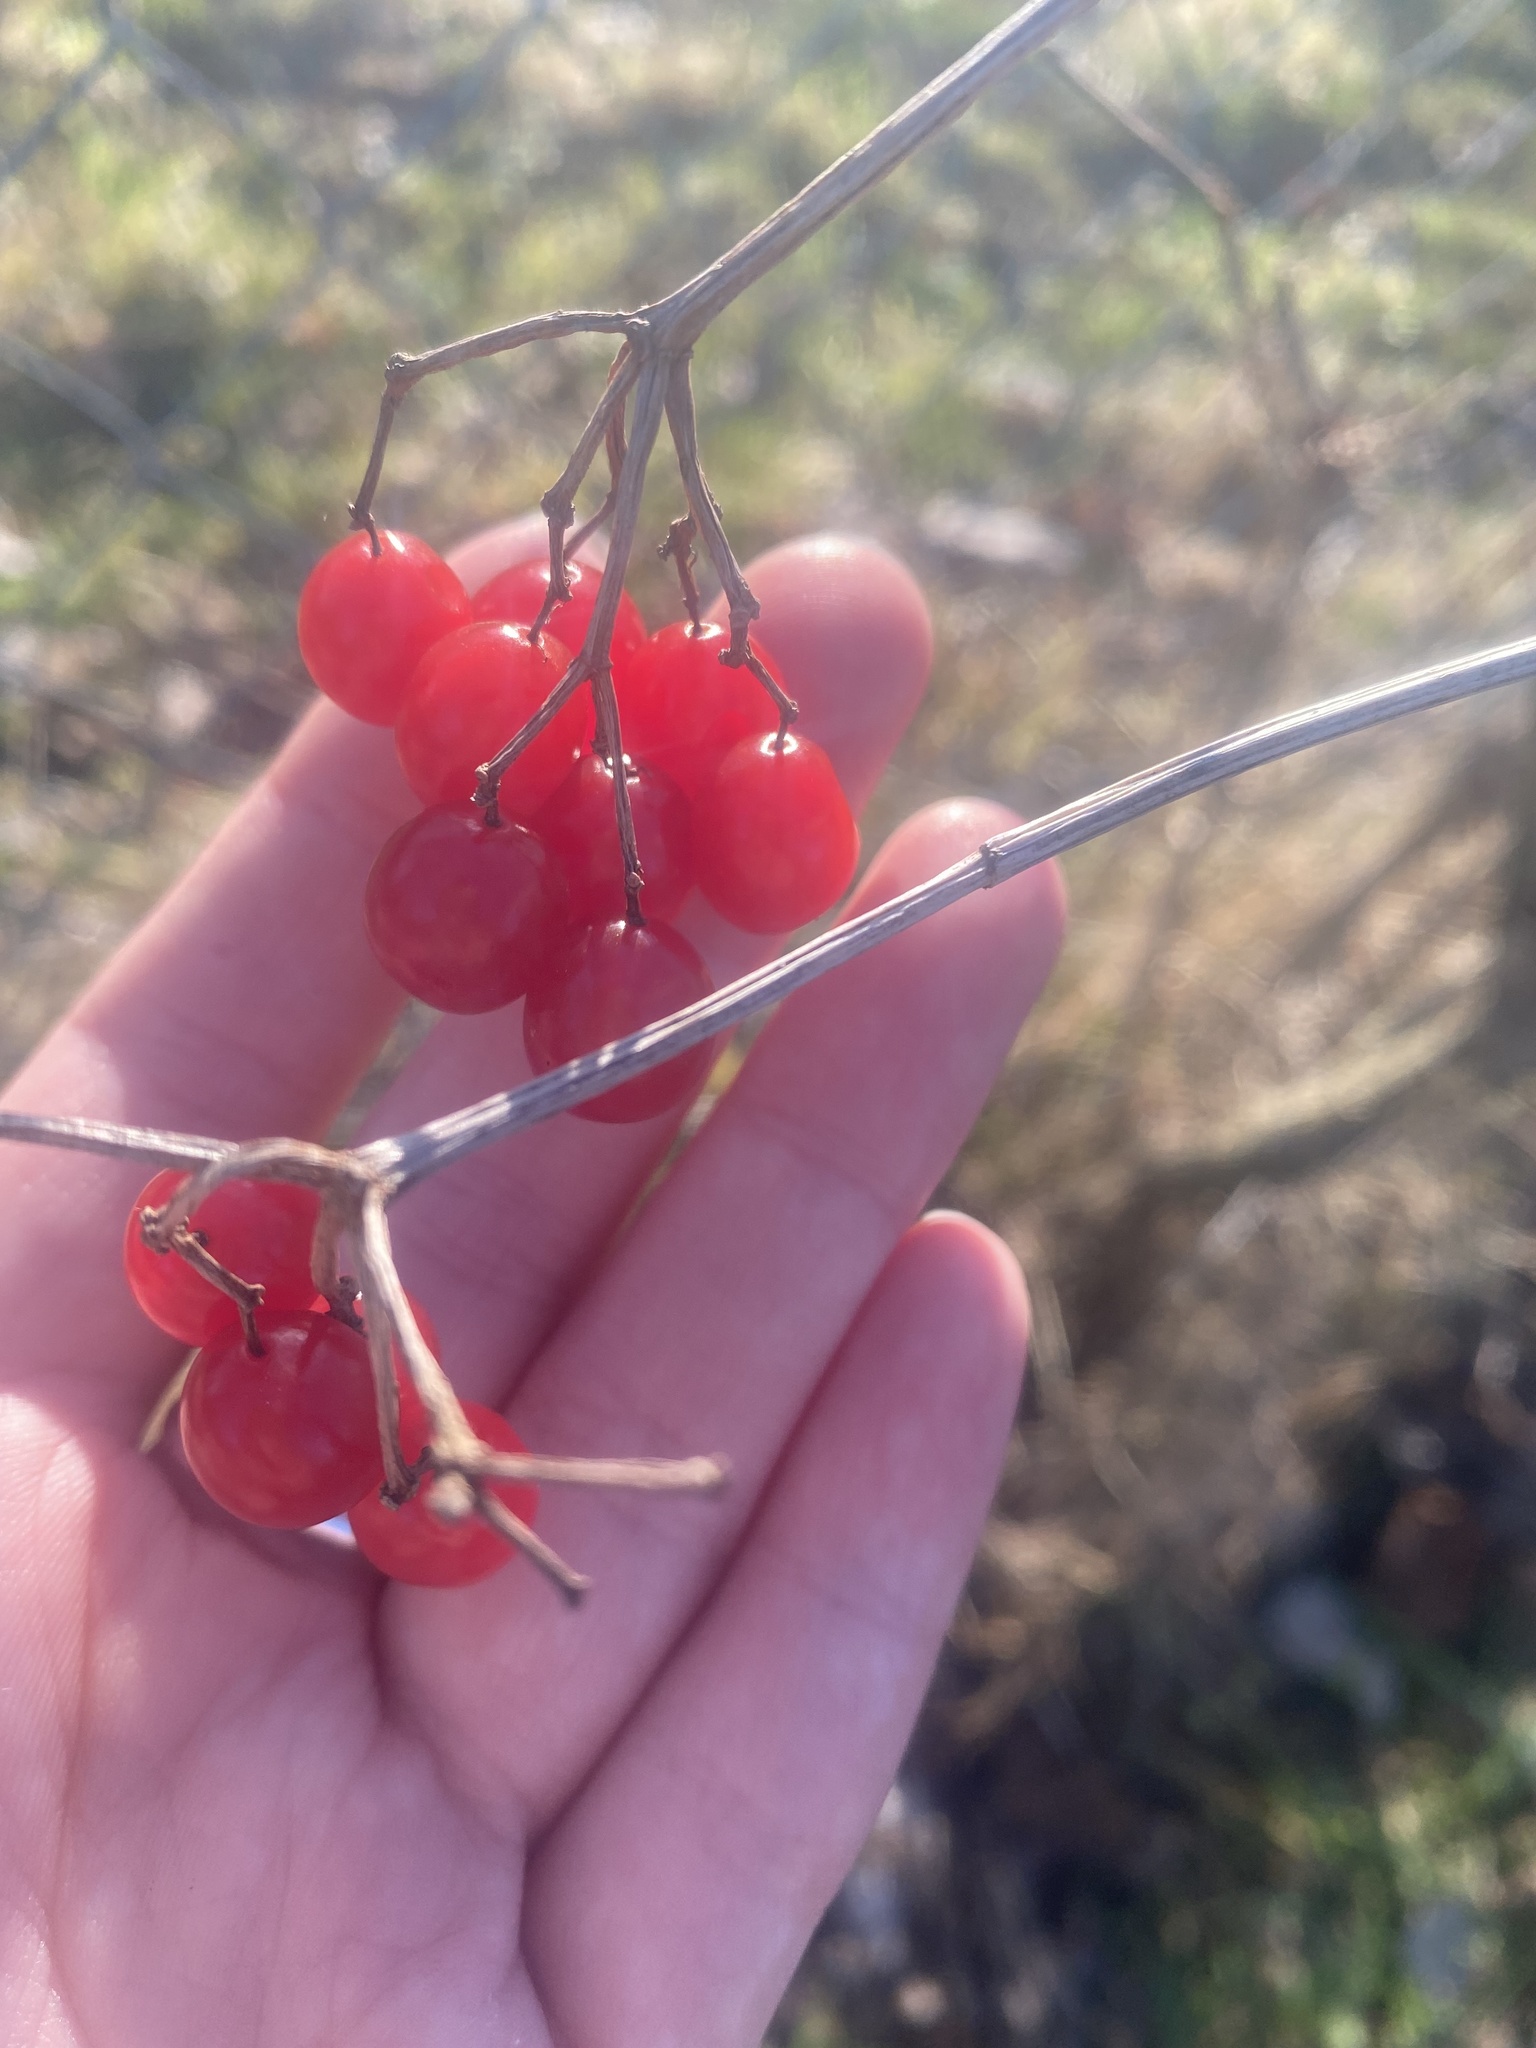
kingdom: Plantae
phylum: Tracheophyta
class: Magnoliopsida
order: Dipsacales
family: Viburnaceae
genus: Viburnum
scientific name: Viburnum opulus
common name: Guelder-rose
